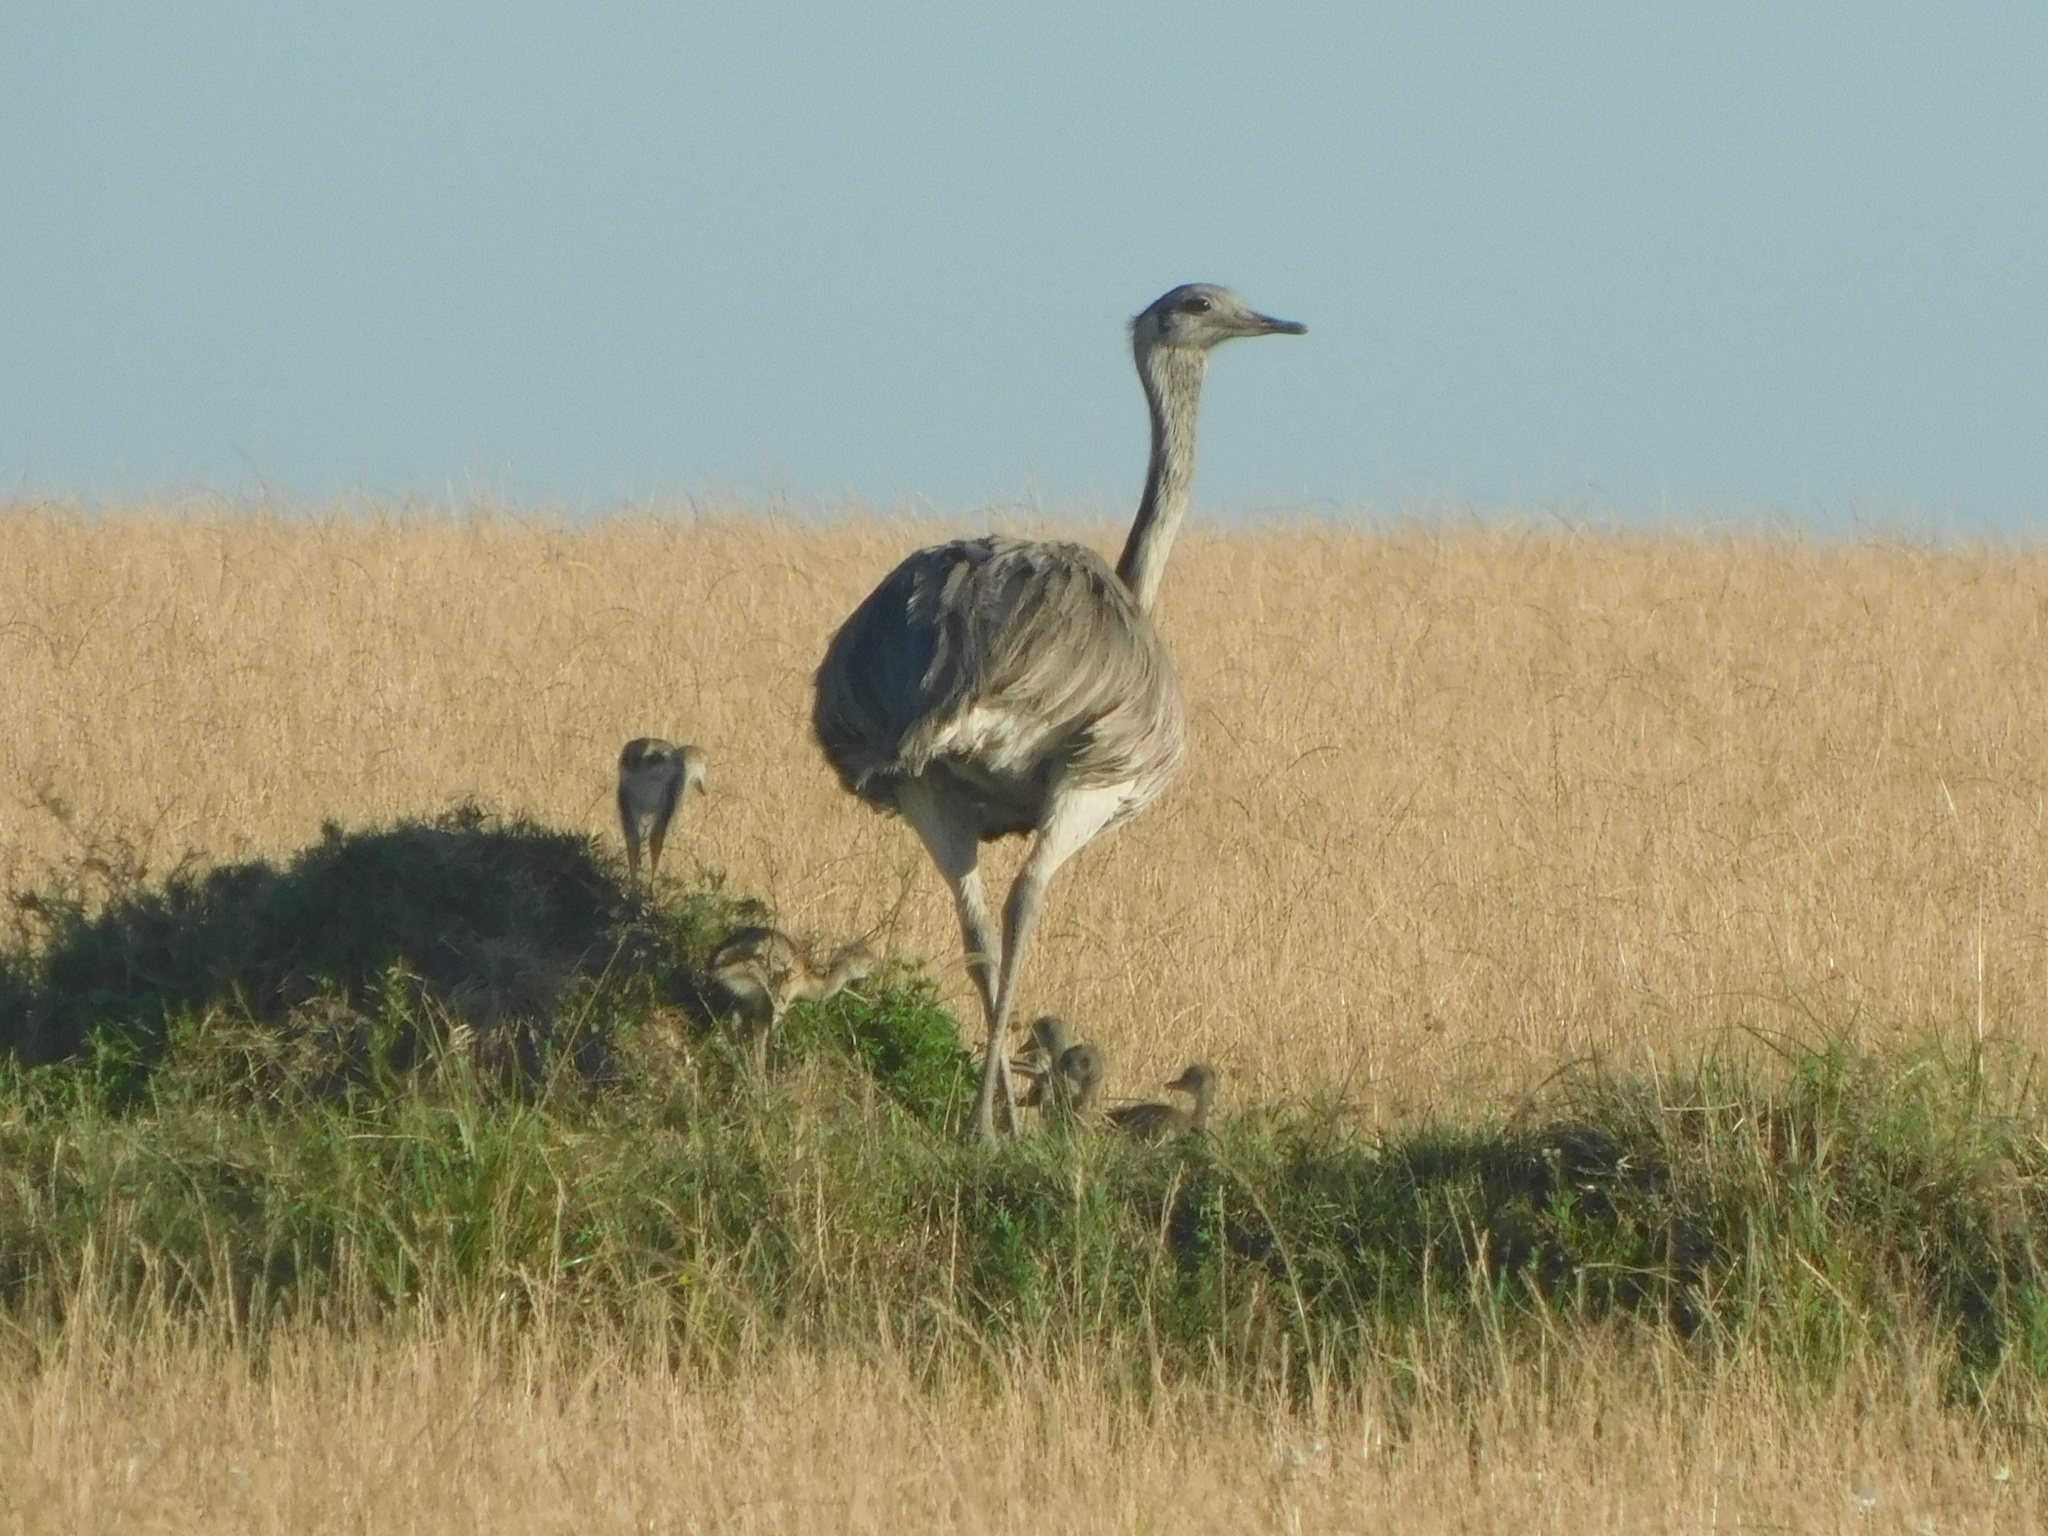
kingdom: Animalia
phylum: Chordata
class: Aves
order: Rheiformes
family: Rheidae
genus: Rhea
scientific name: Rhea americana
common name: Greater rhea
